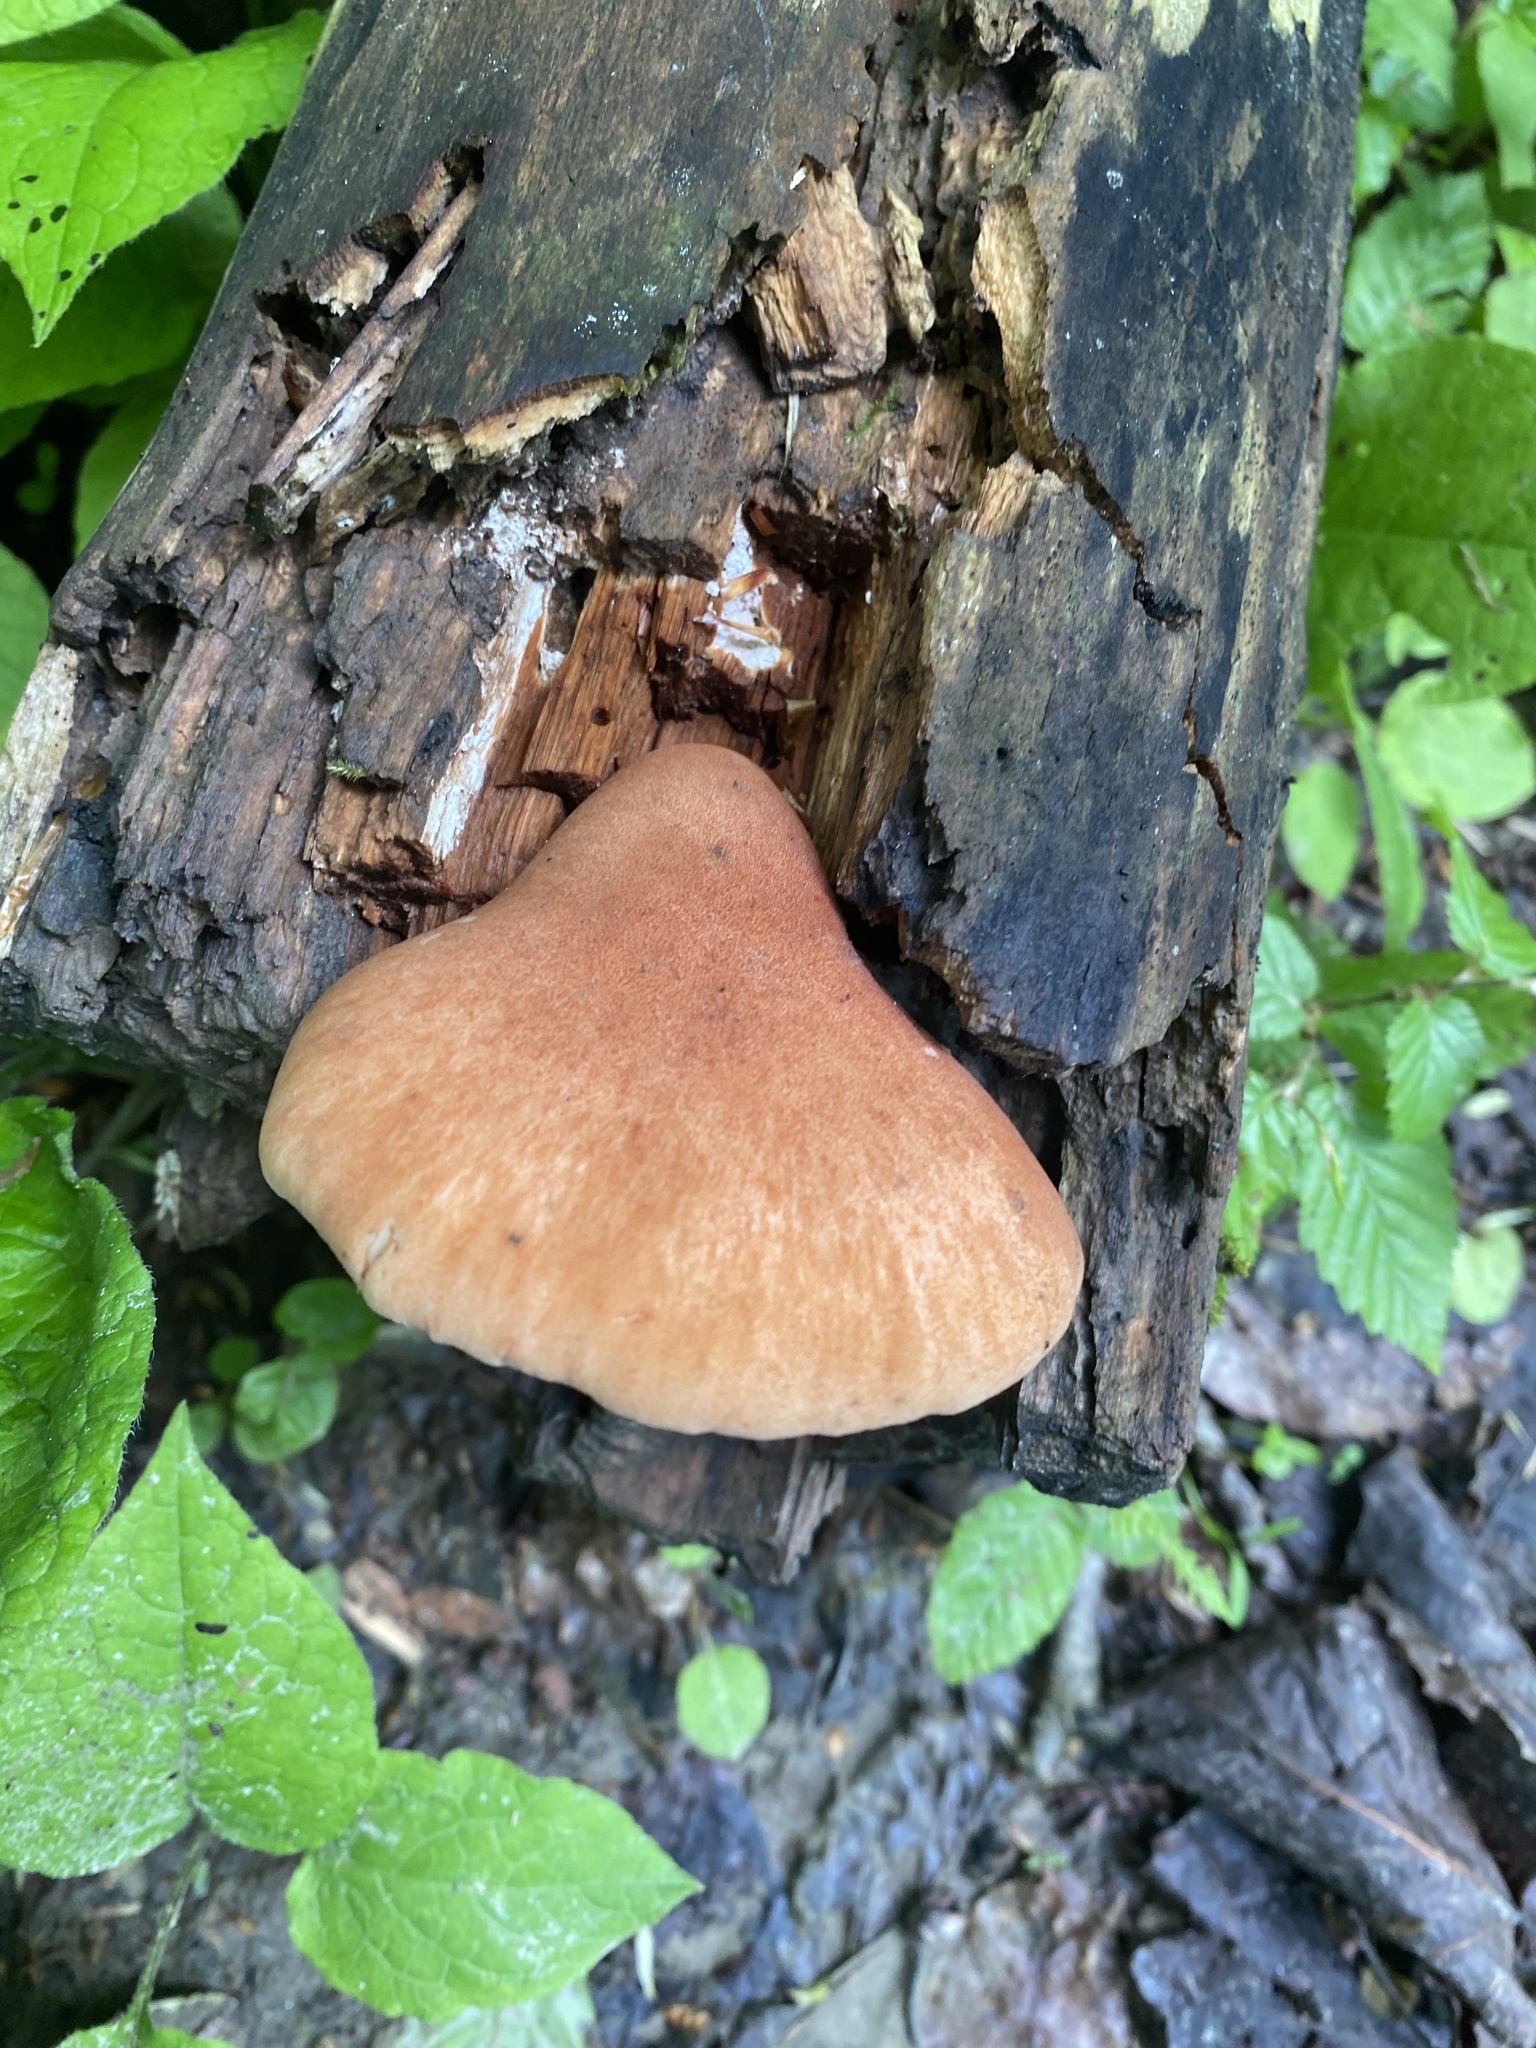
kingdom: Fungi
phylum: Basidiomycota
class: Agaricomycetes
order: Gloeophyllales
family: Gloeophyllaceae
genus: Neolentinus
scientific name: Neolentinus cyathiformis
